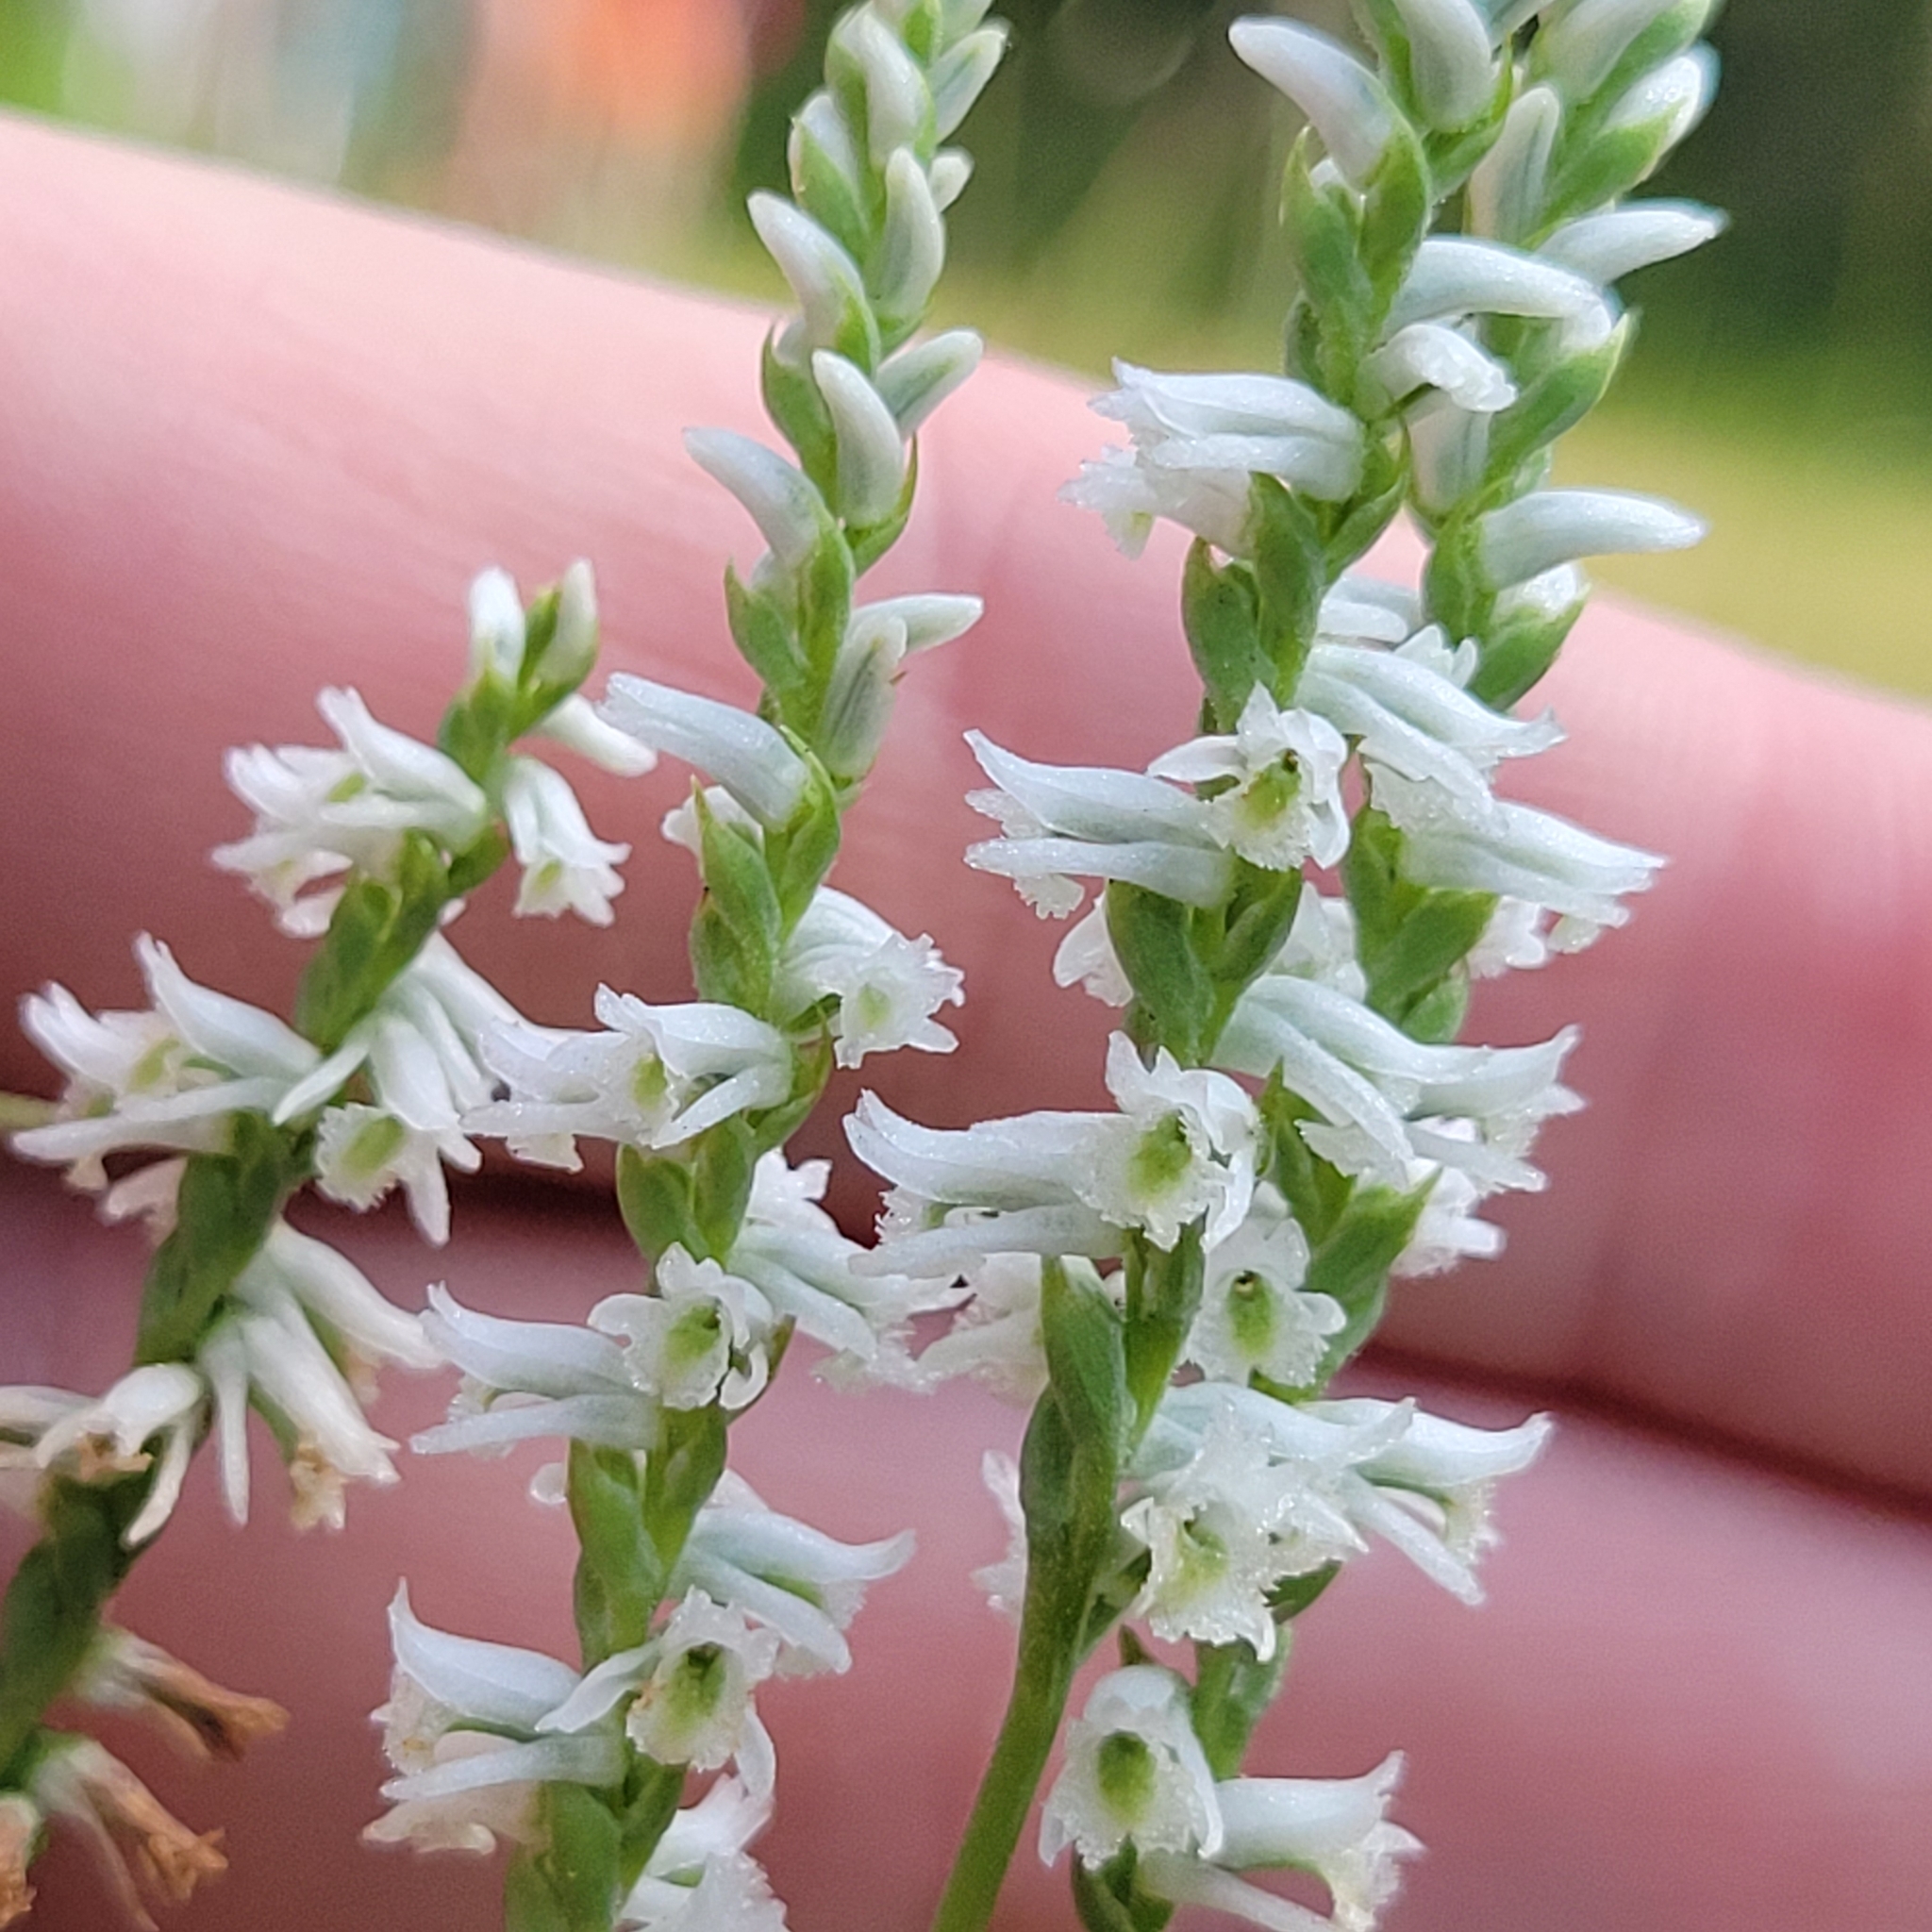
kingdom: Plantae
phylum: Tracheophyta
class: Liliopsida
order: Asparagales
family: Orchidaceae
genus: Spiranthes
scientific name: Spiranthes lacera
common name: Northern slender ladies'-tresses
